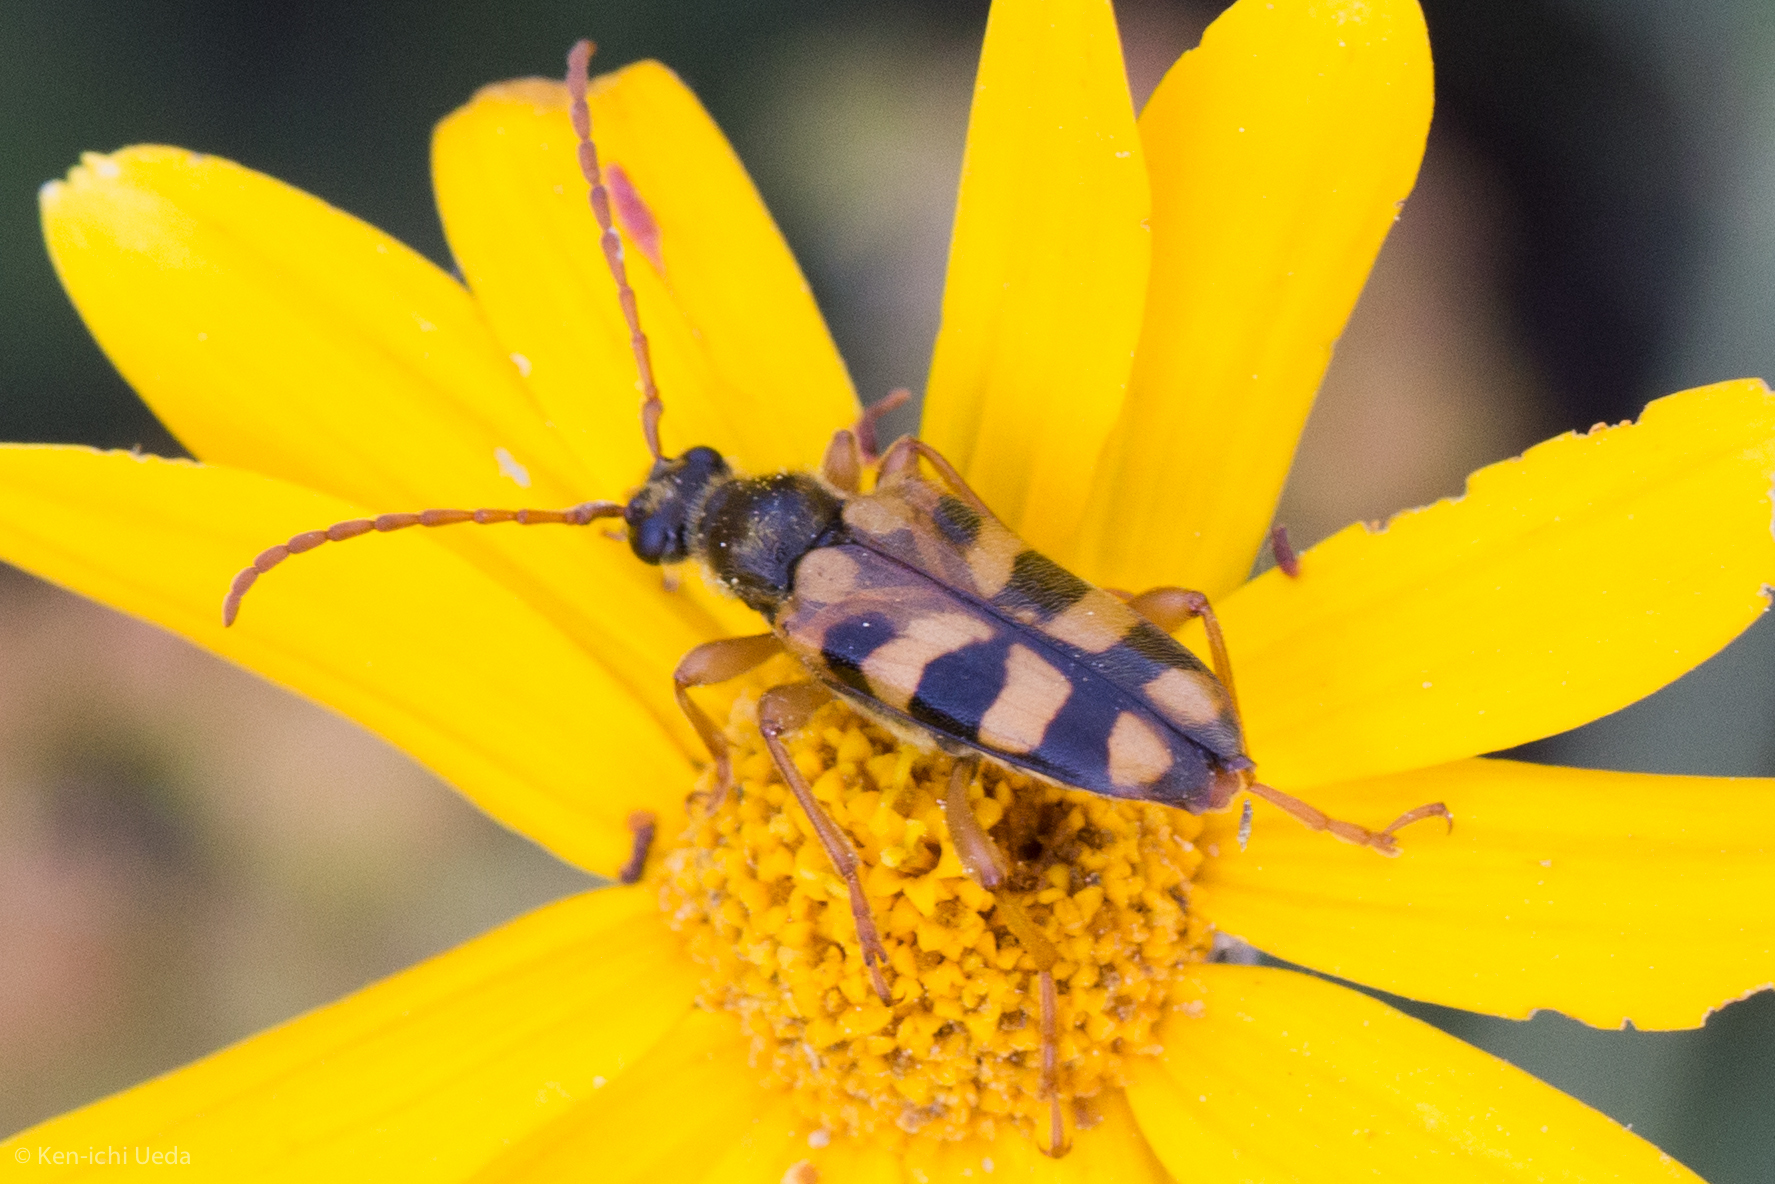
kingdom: Animalia
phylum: Arthropoda
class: Insecta
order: Coleoptera
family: Cerambycidae
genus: Xestoleptura
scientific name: Xestoleptura crassipes
